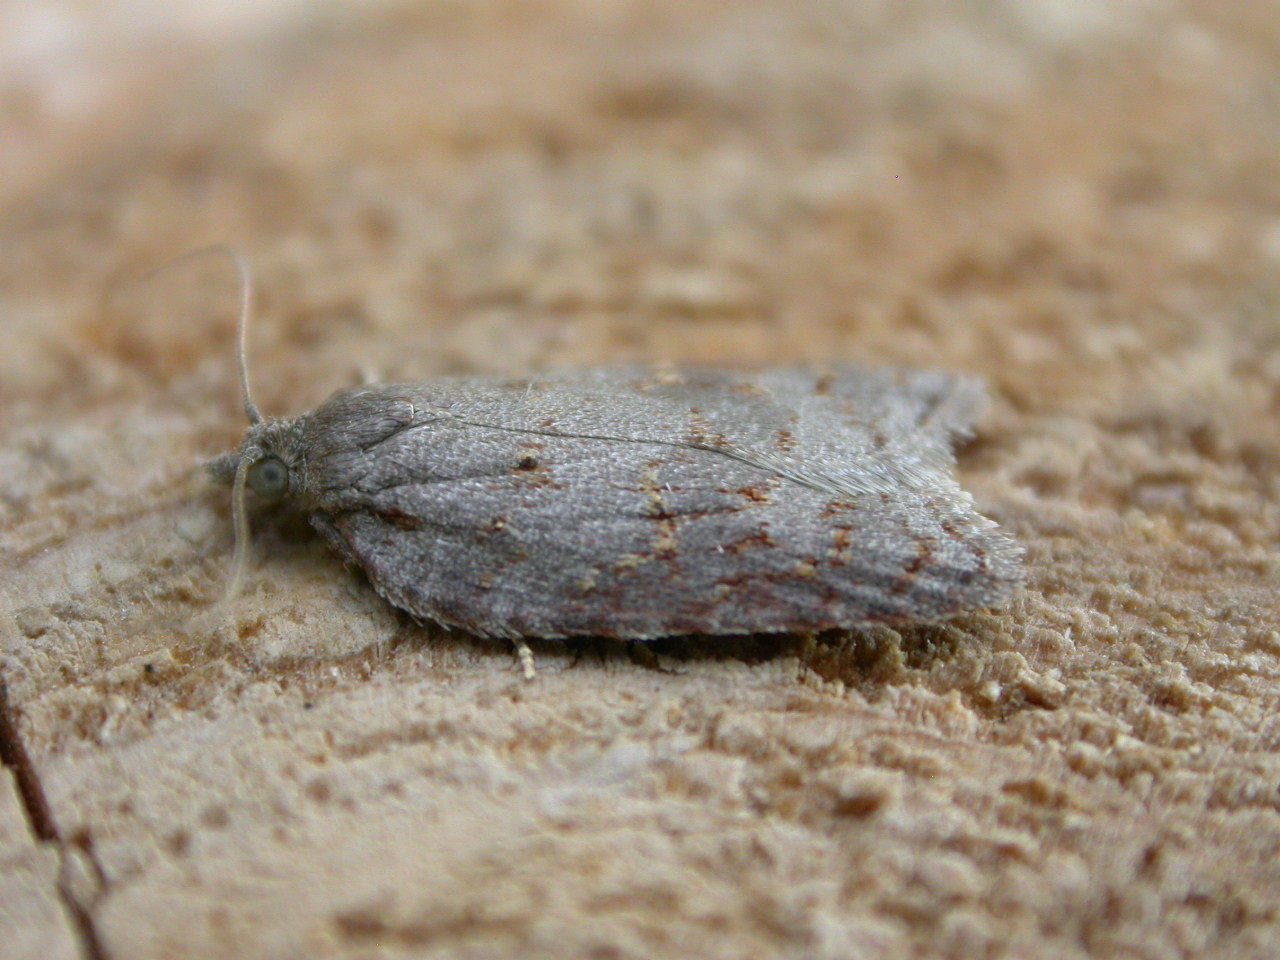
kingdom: Animalia
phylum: Arthropoda
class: Insecta
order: Lepidoptera
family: Tortricidae
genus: Acleris
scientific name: Acleris sparsana
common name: Ashy button
